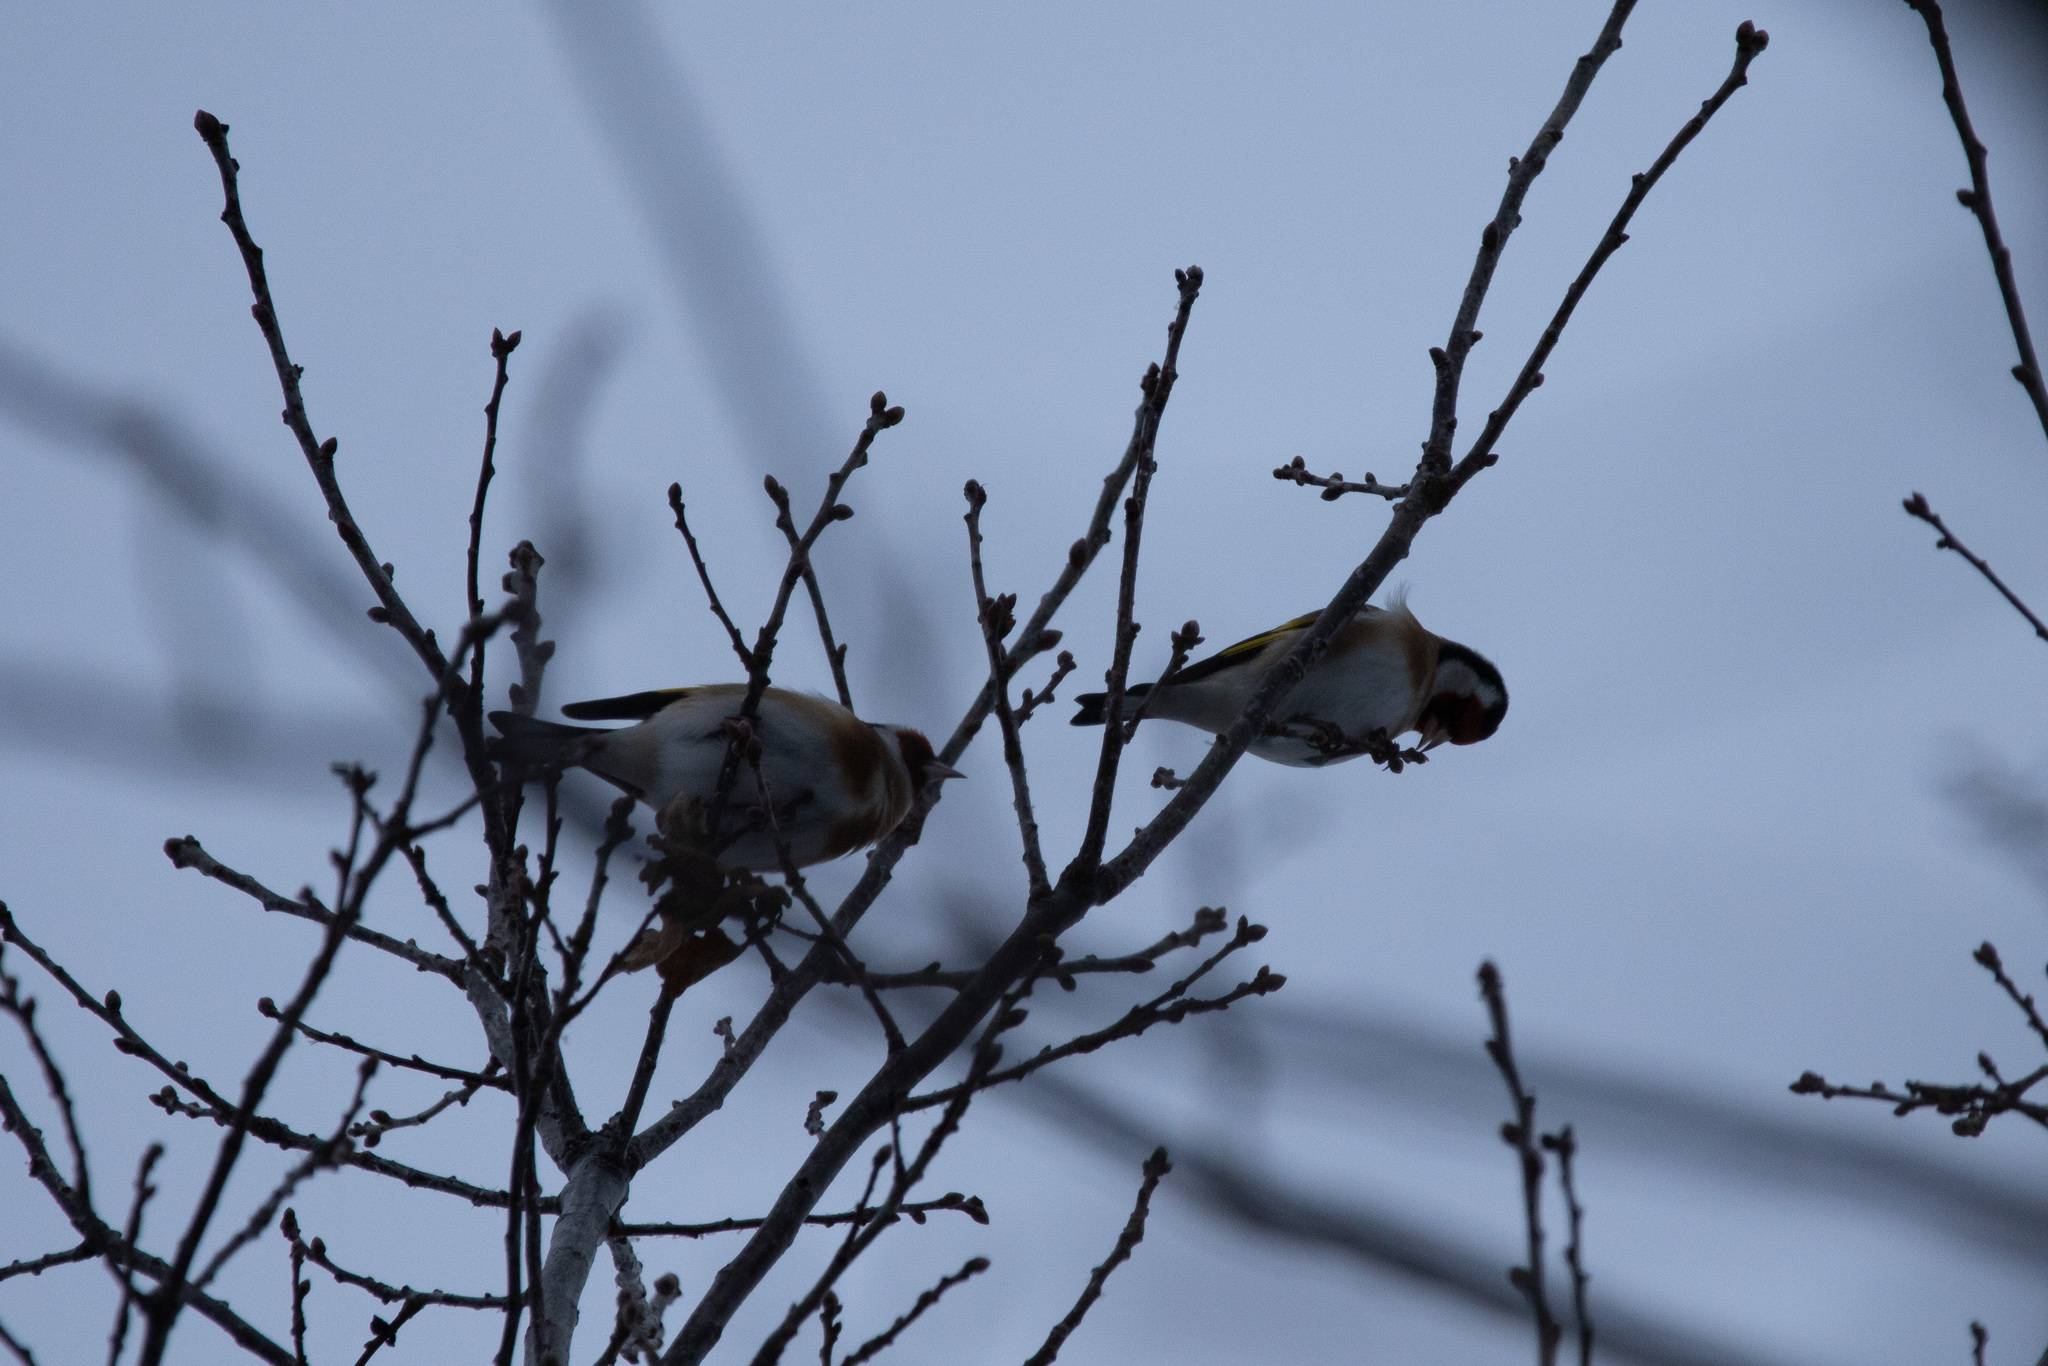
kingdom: Animalia
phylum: Chordata
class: Aves
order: Passeriformes
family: Fringillidae
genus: Carduelis
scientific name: Carduelis carduelis
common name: European goldfinch
